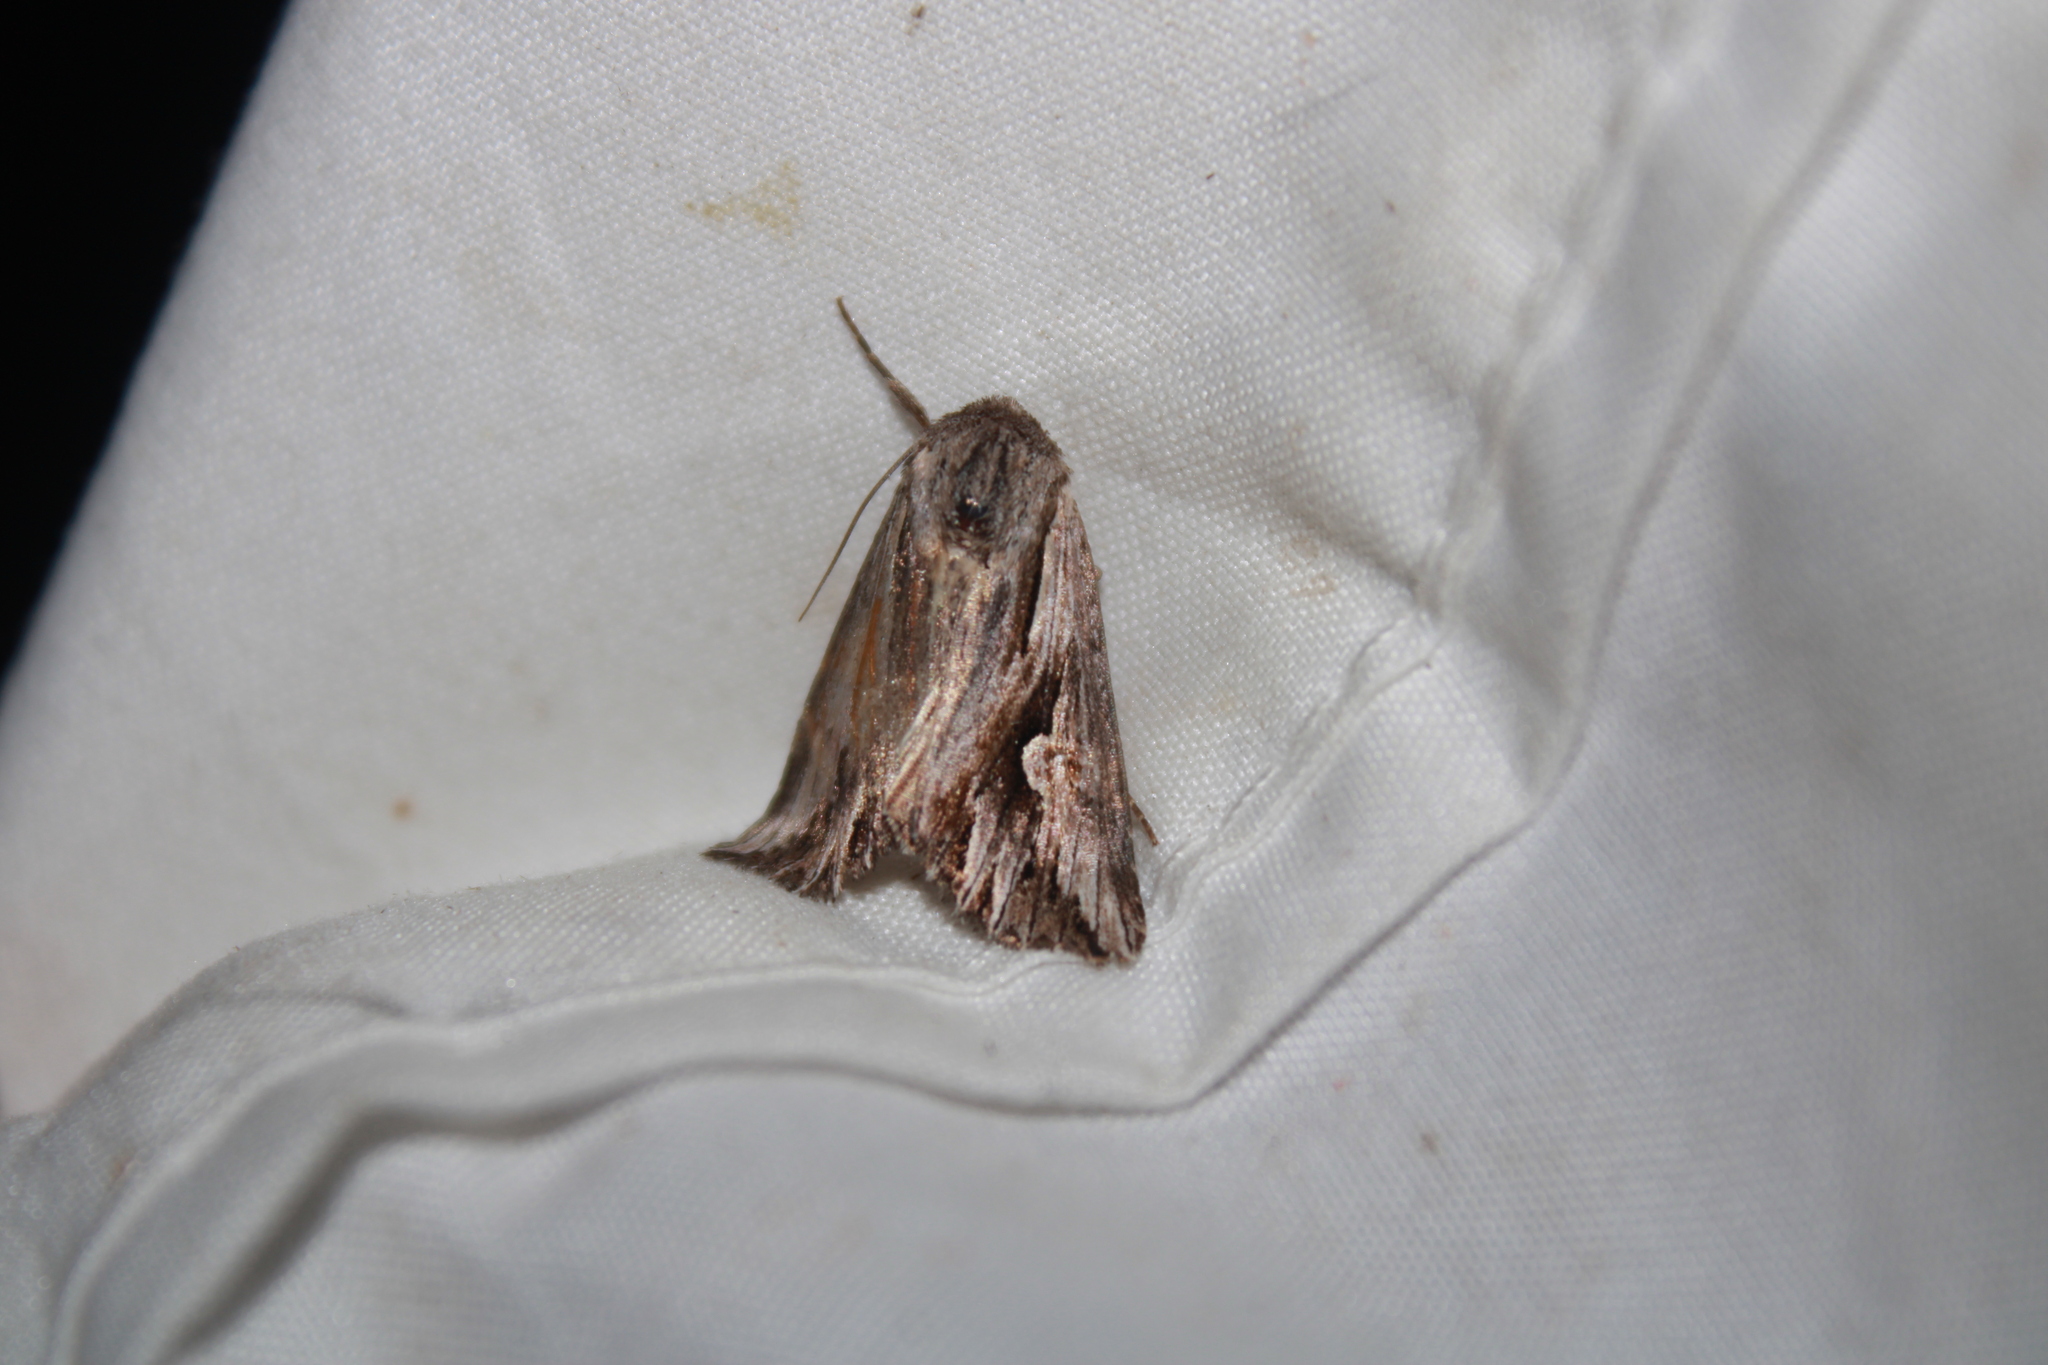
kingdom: Animalia
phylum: Arthropoda
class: Insecta
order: Lepidoptera
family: Noctuidae
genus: Nedra
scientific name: Nedra ramosula
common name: Gray half-spot
